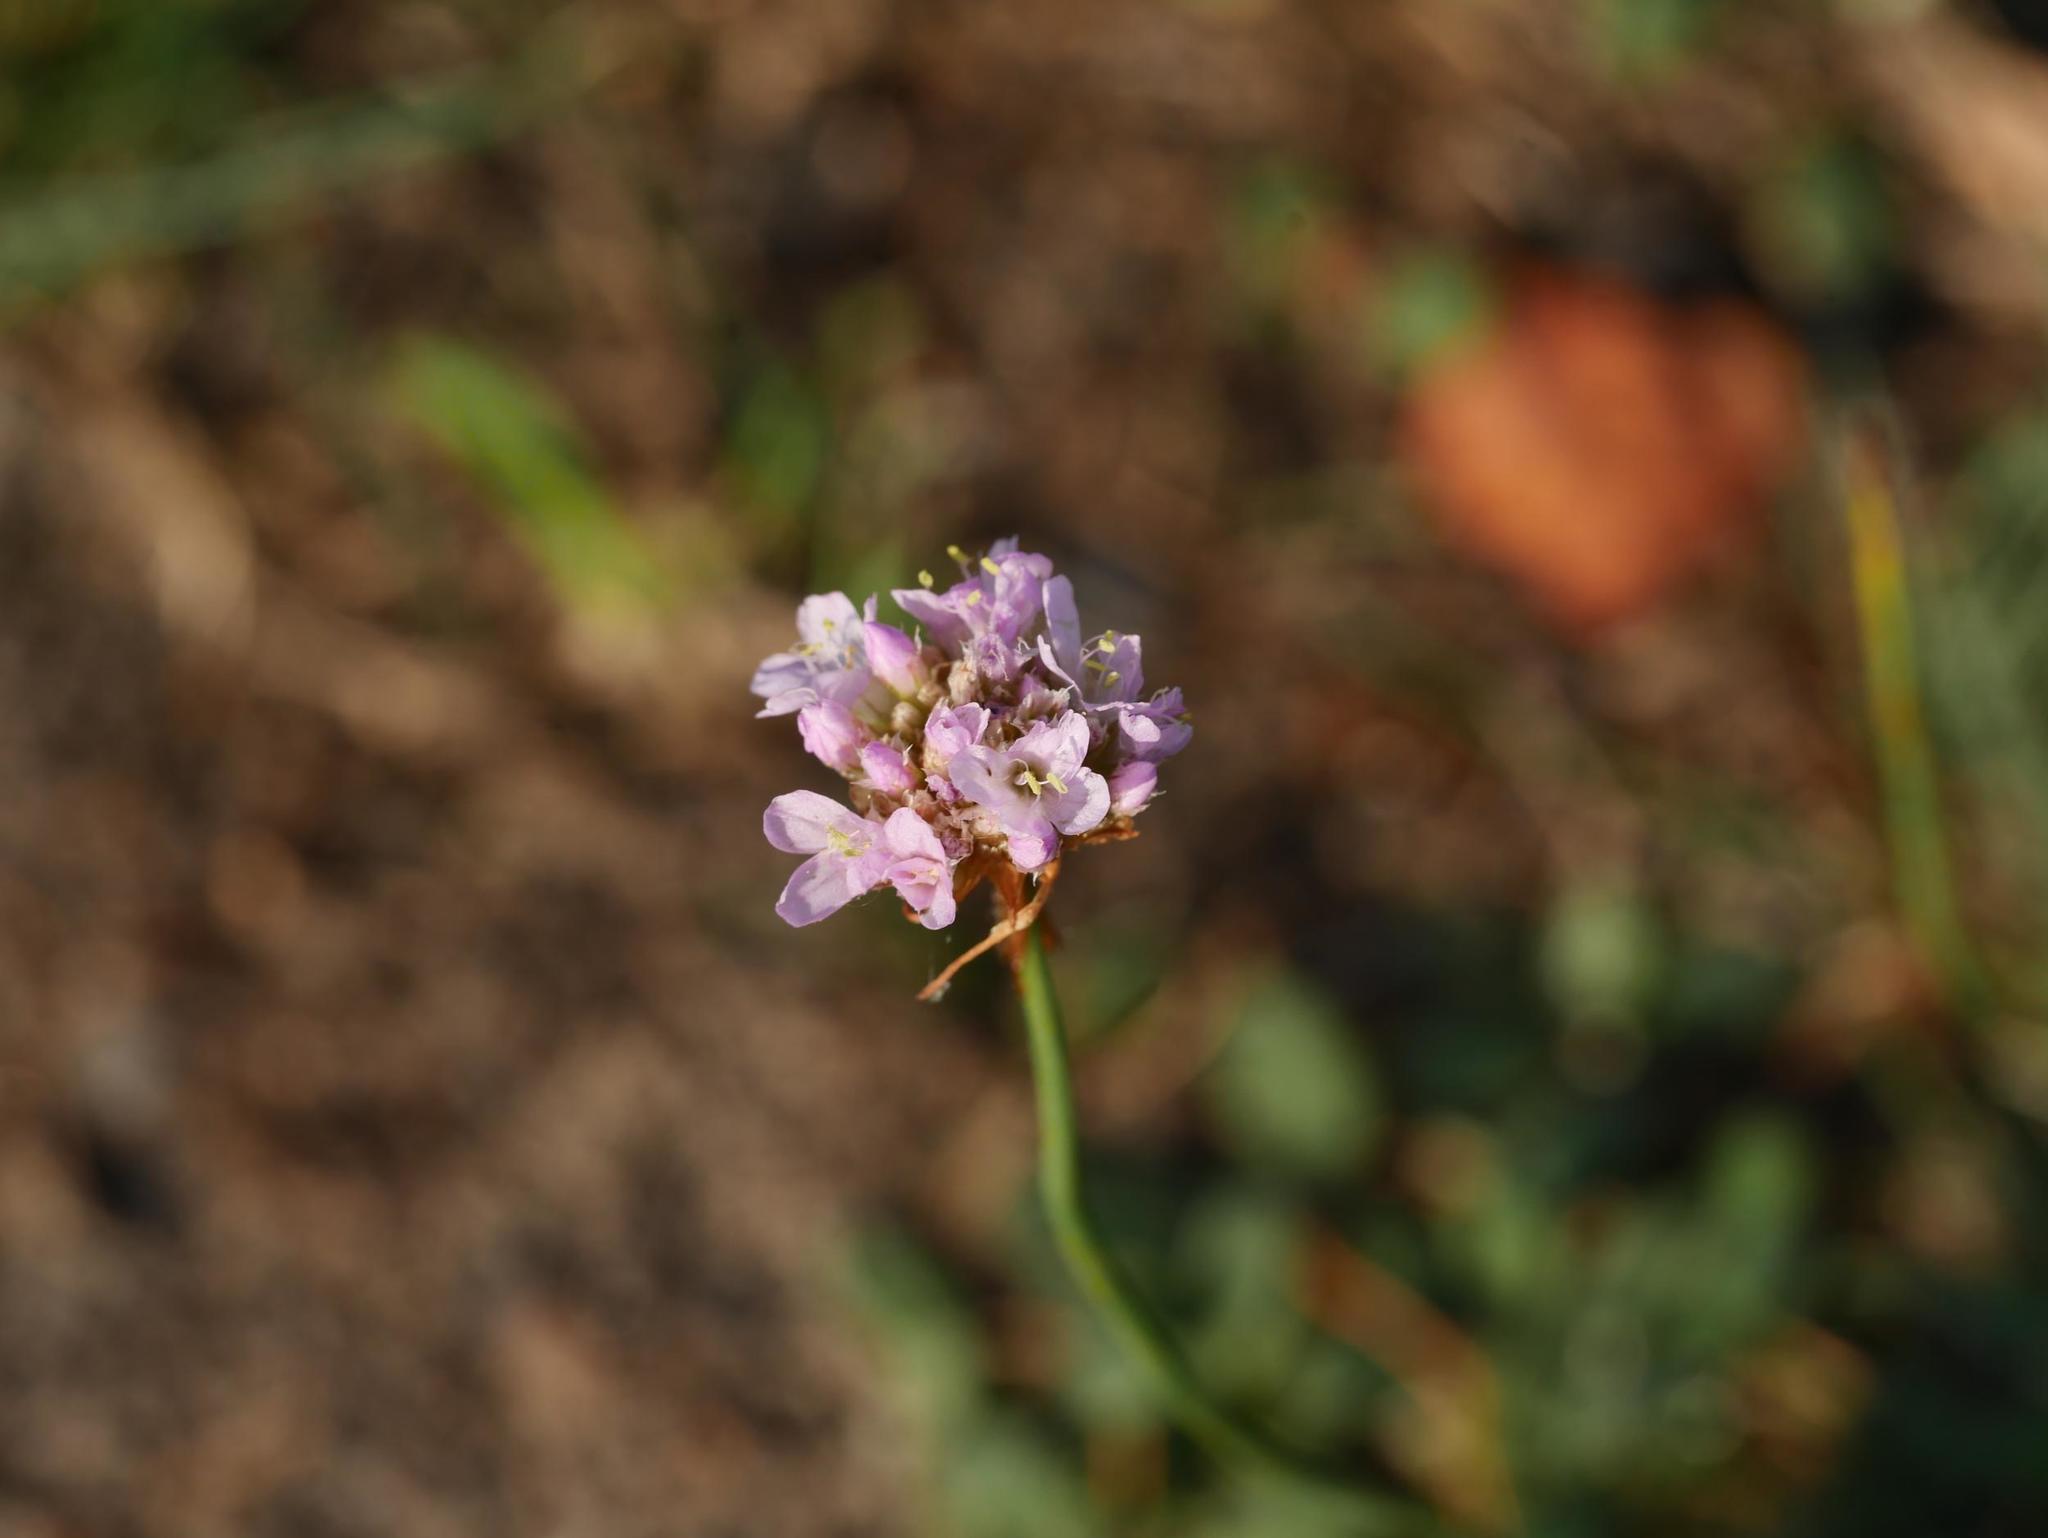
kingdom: Plantae
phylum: Tracheophyta
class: Magnoliopsida
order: Caryophyllales
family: Plumbaginaceae
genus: Armeria
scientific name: Armeria maritima
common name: Thrift
